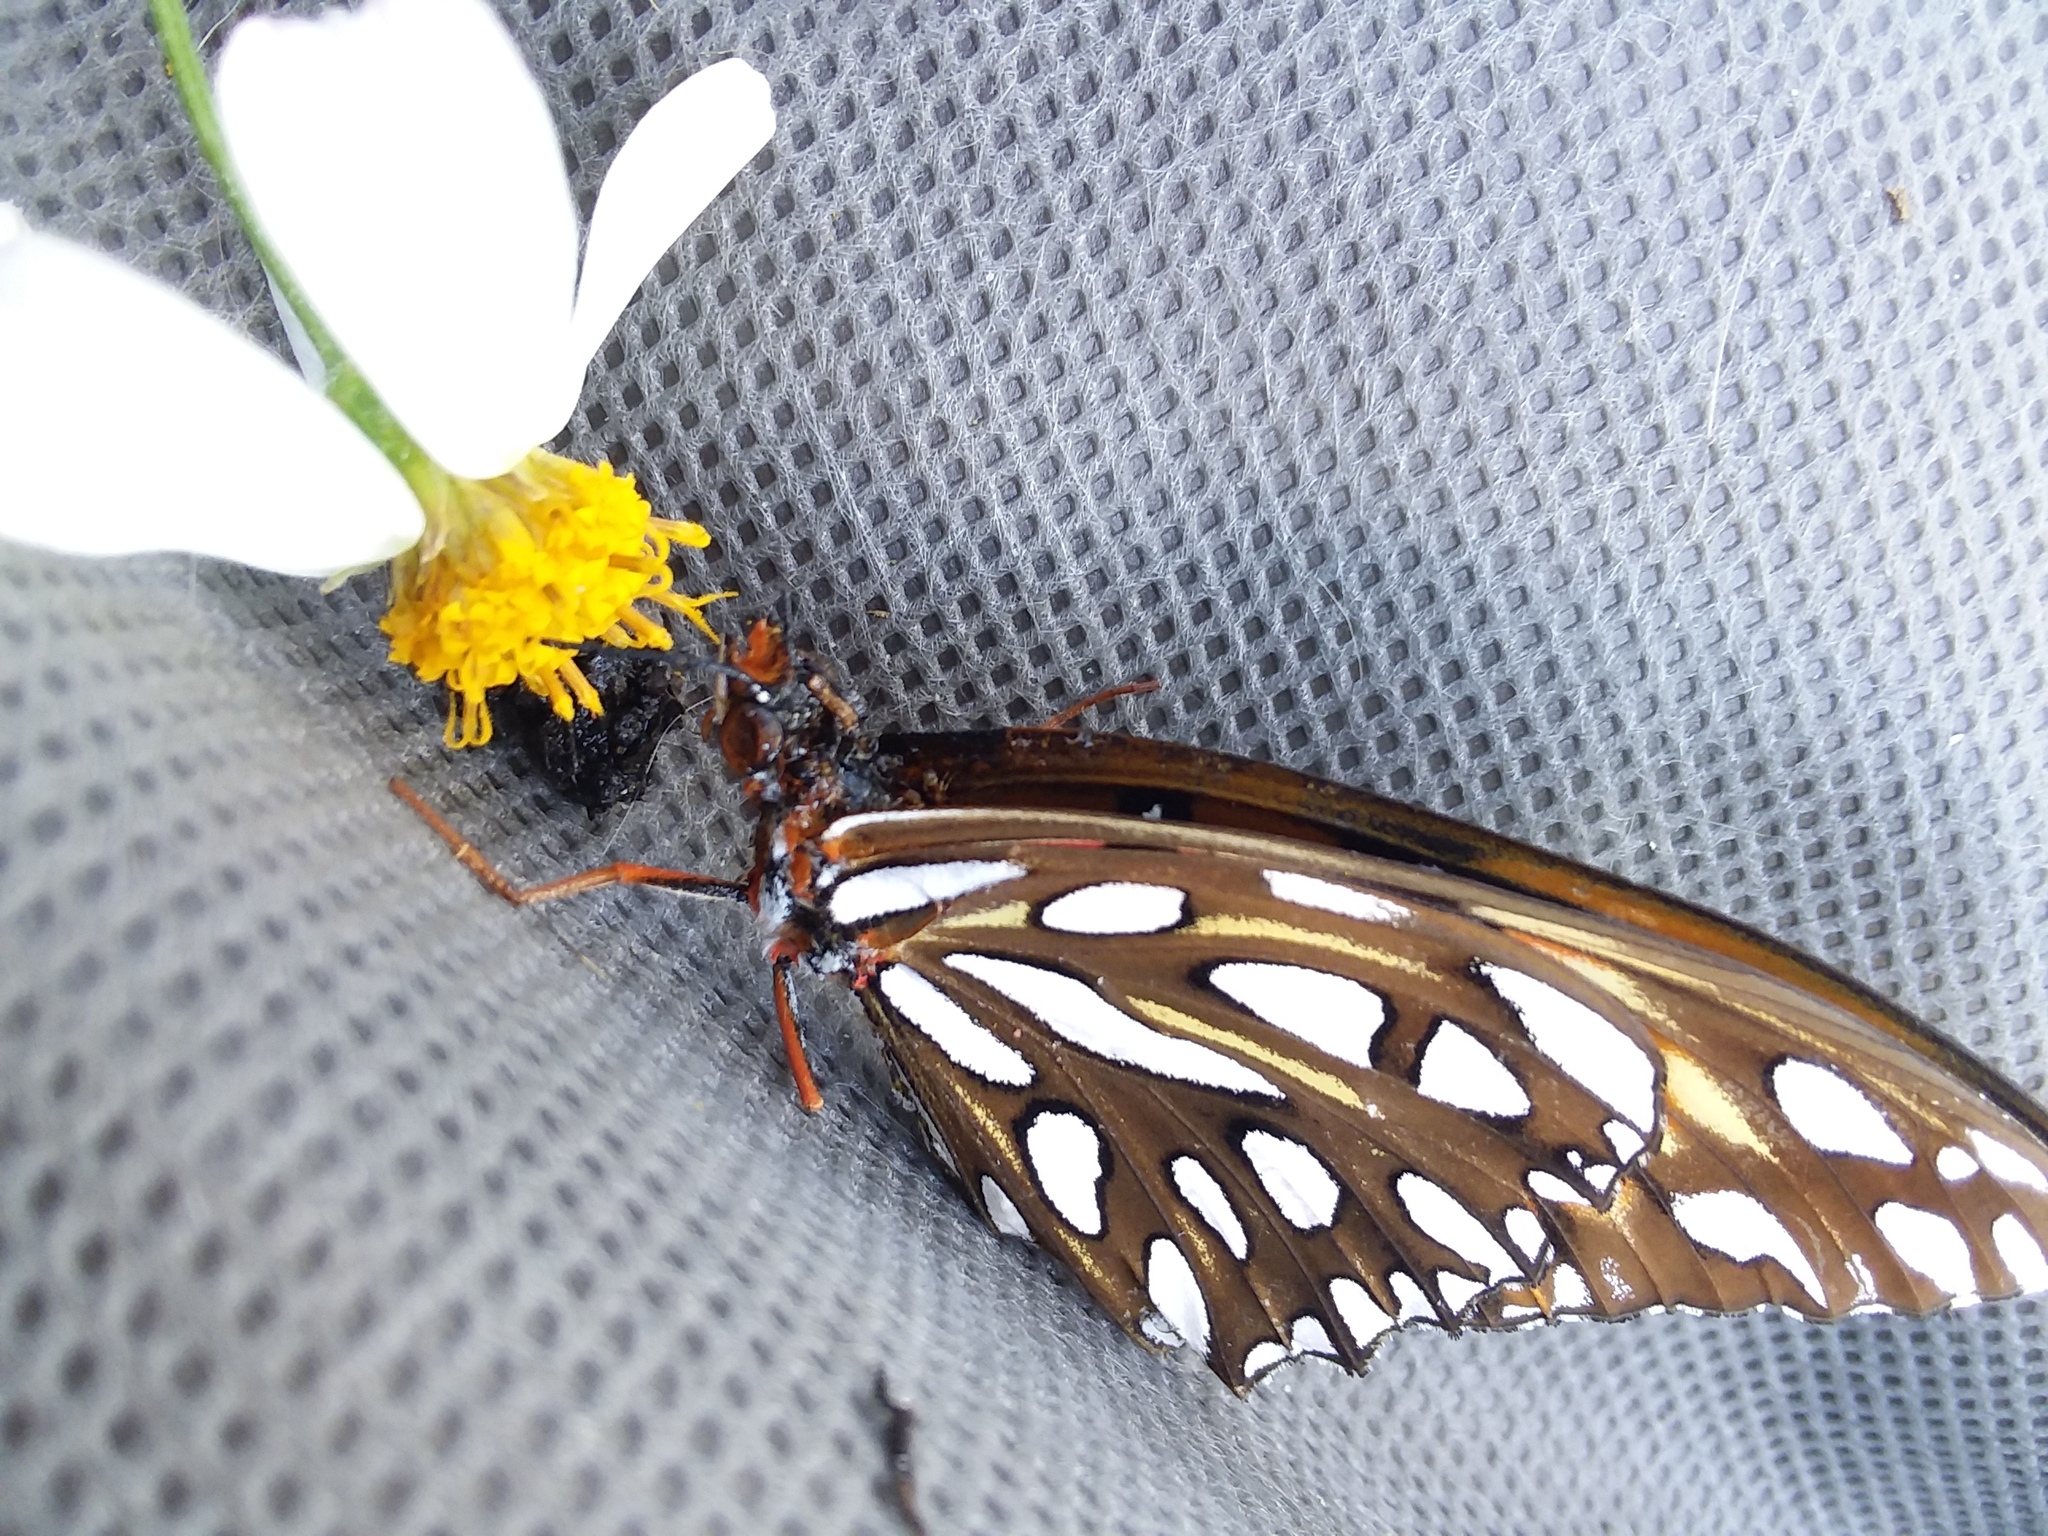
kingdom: Animalia
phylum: Arthropoda
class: Insecta
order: Lepidoptera
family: Nymphalidae
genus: Dione
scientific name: Dione vanillae
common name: Gulf fritillary
